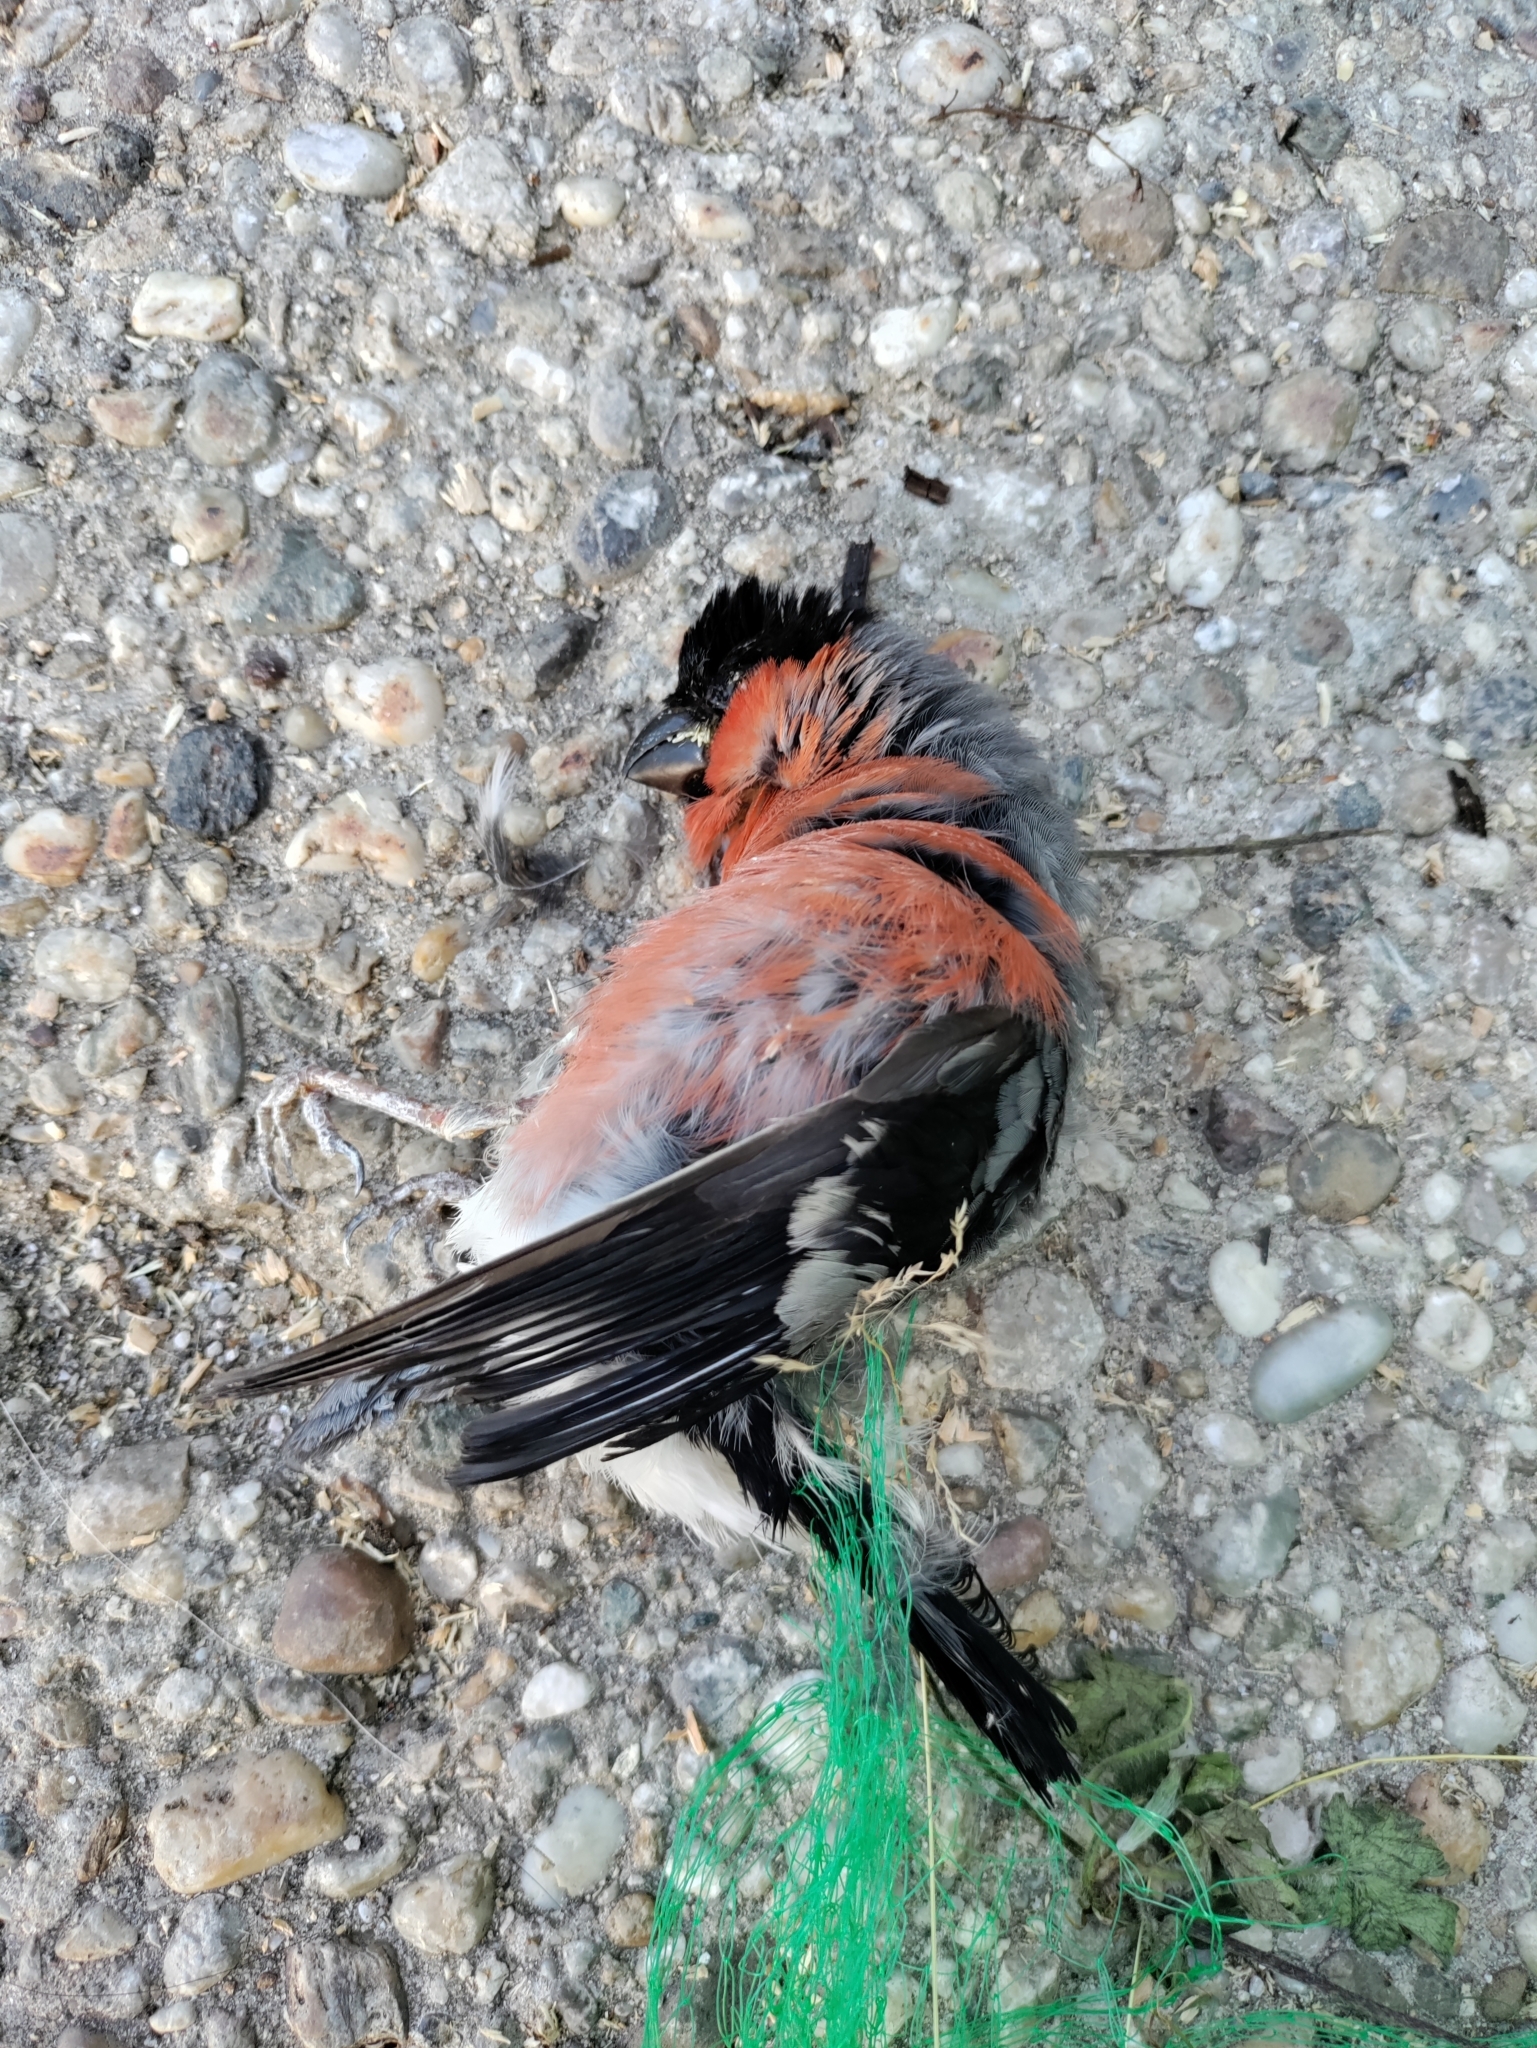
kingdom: Animalia
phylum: Chordata
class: Aves
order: Passeriformes
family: Fringillidae
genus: Pyrrhula
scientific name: Pyrrhula pyrrhula
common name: Eurasian bullfinch
